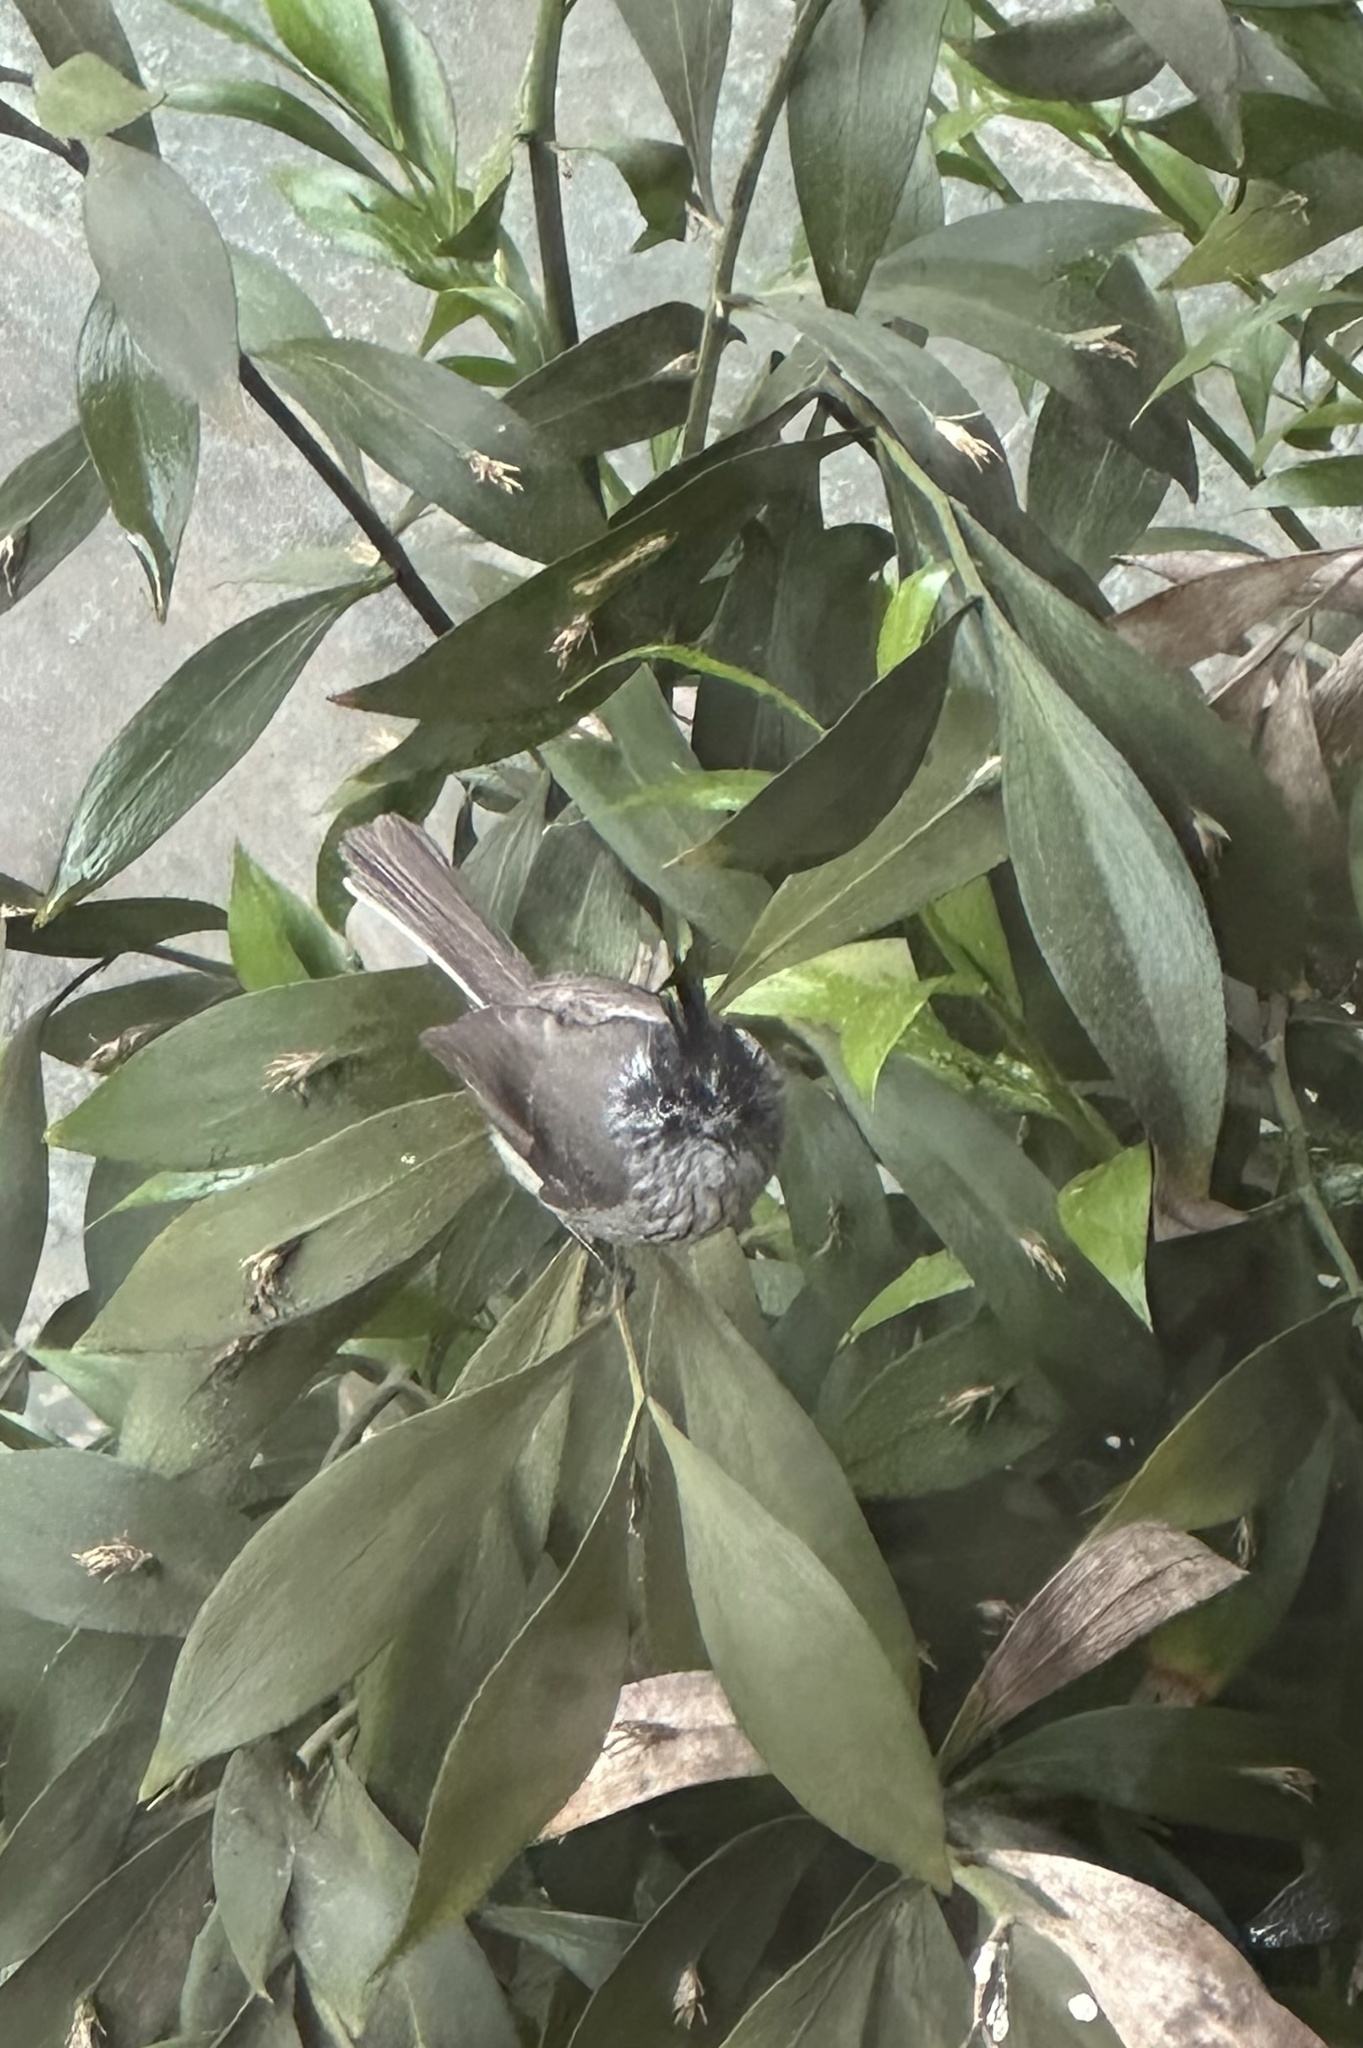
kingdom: Animalia
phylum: Chordata
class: Aves
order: Passeriformes
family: Tyrannidae
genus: Anairetes
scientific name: Anairetes parulus
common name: Tufted tit-tyrant
